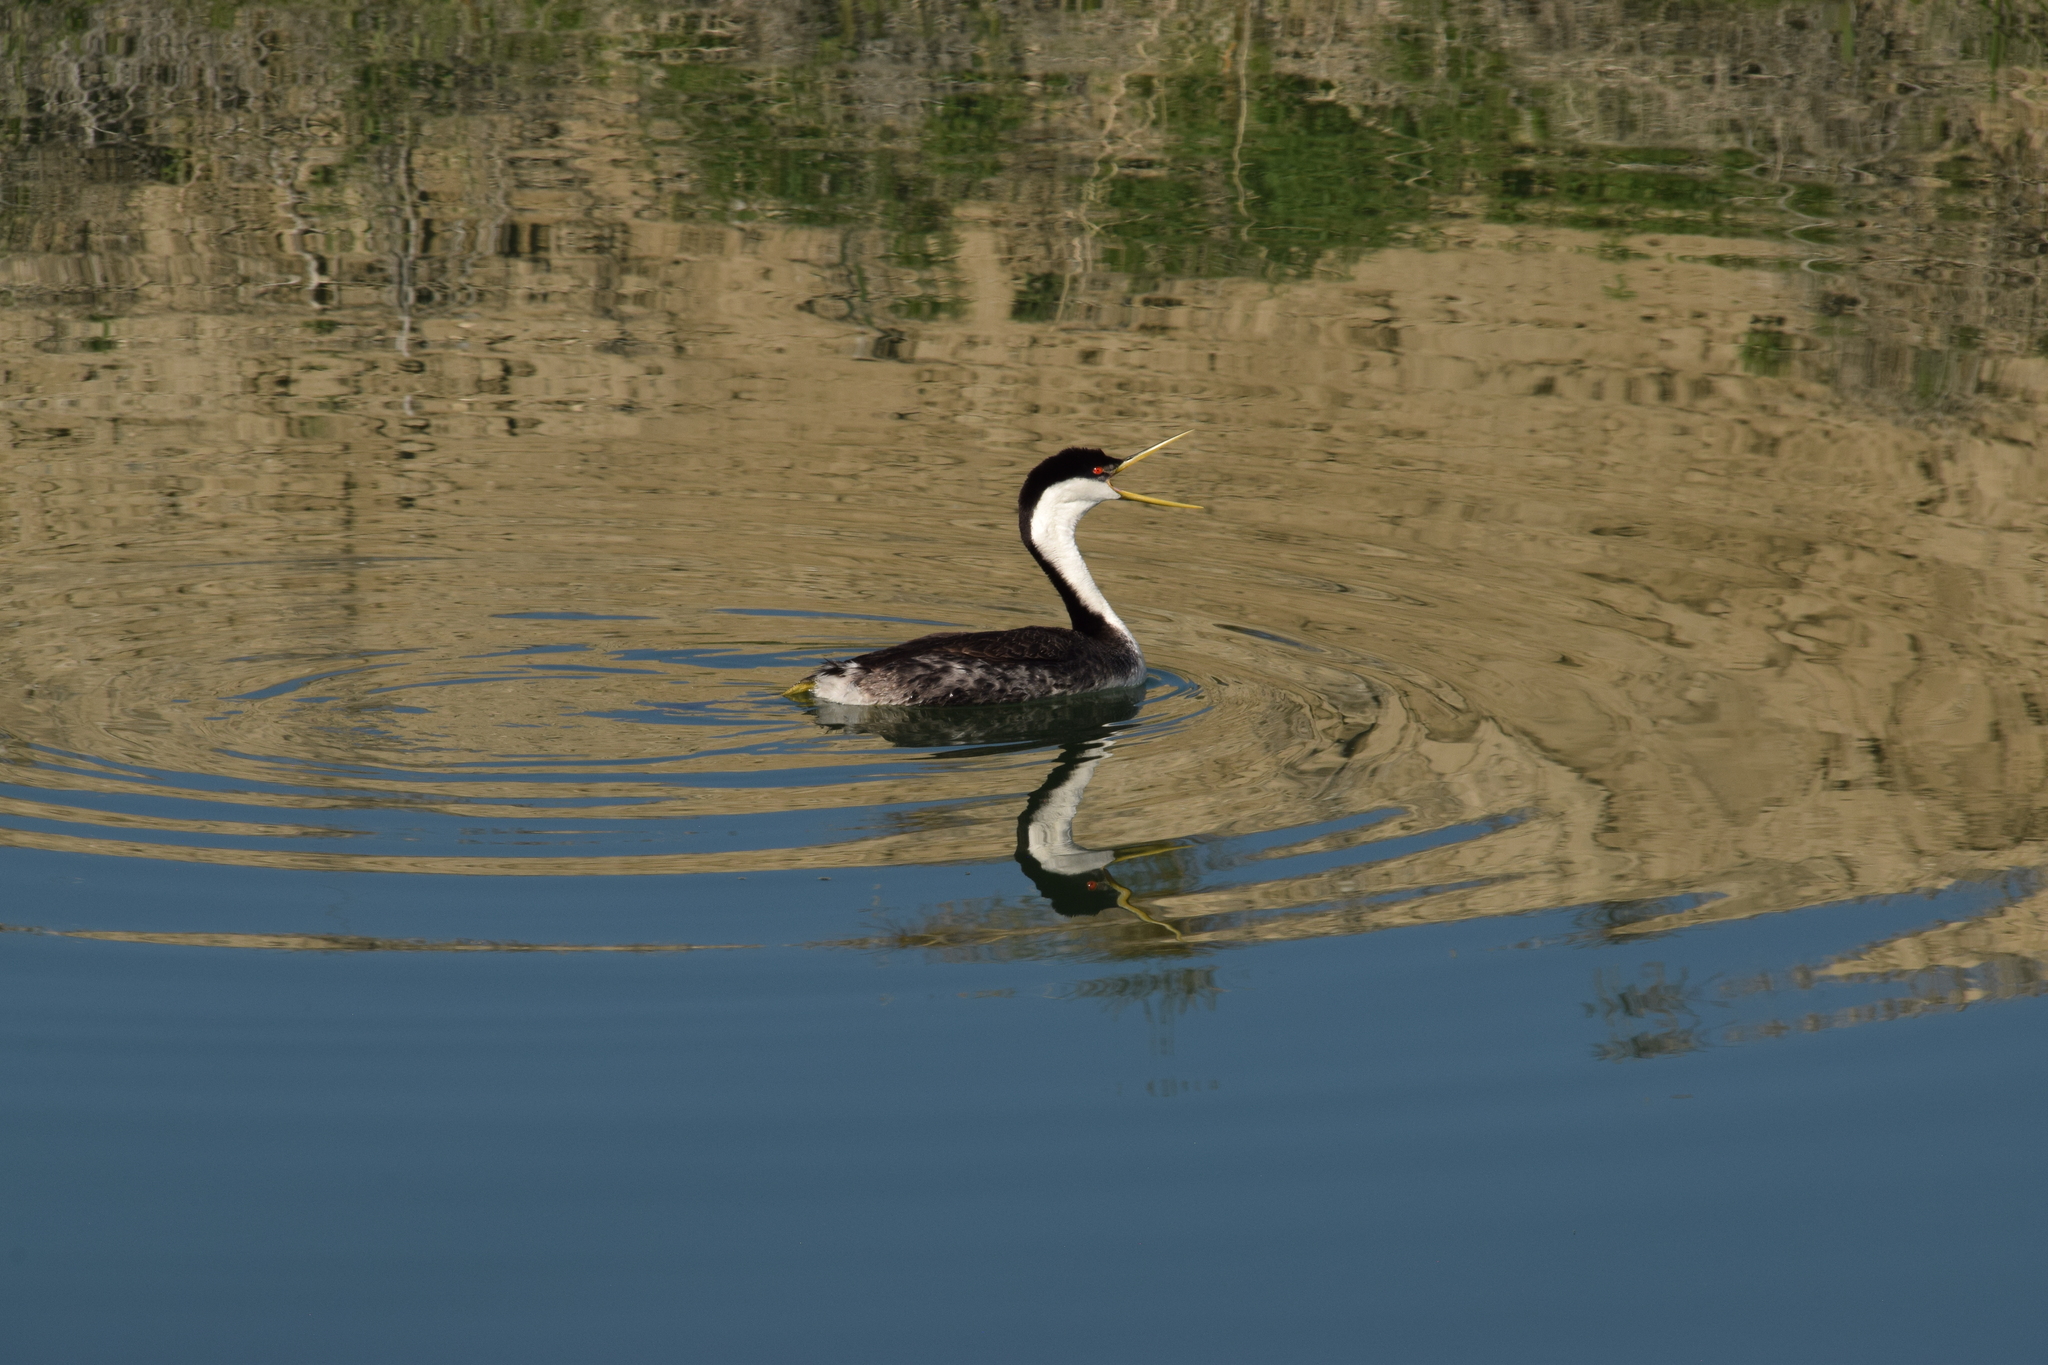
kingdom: Animalia
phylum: Chordata
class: Aves
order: Podicipediformes
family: Podicipedidae
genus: Aechmophorus
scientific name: Aechmophorus occidentalis
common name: Western grebe
